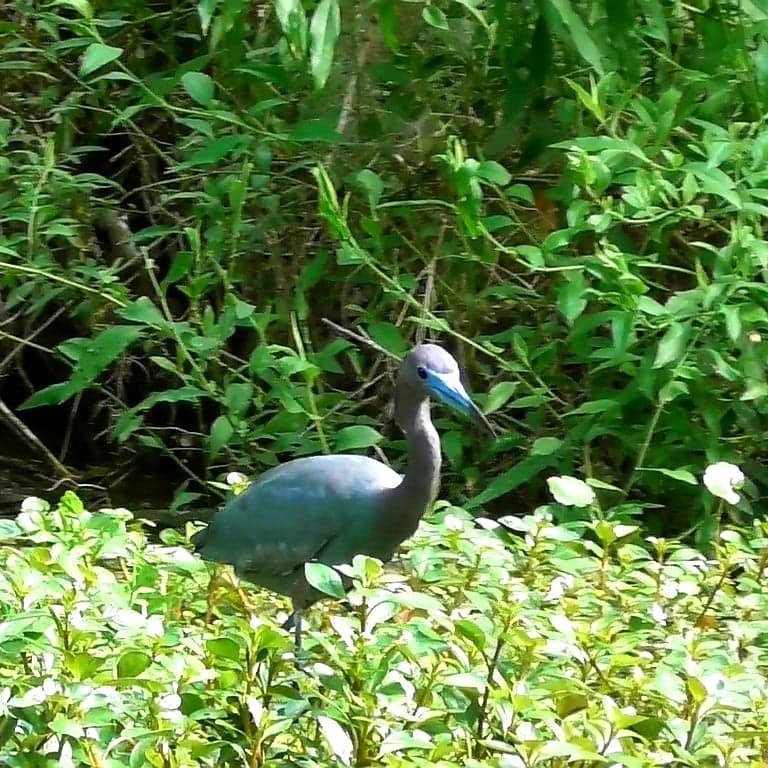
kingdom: Animalia
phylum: Chordata
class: Aves
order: Pelecaniformes
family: Ardeidae
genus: Egretta
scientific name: Egretta caerulea
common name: Little blue heron
